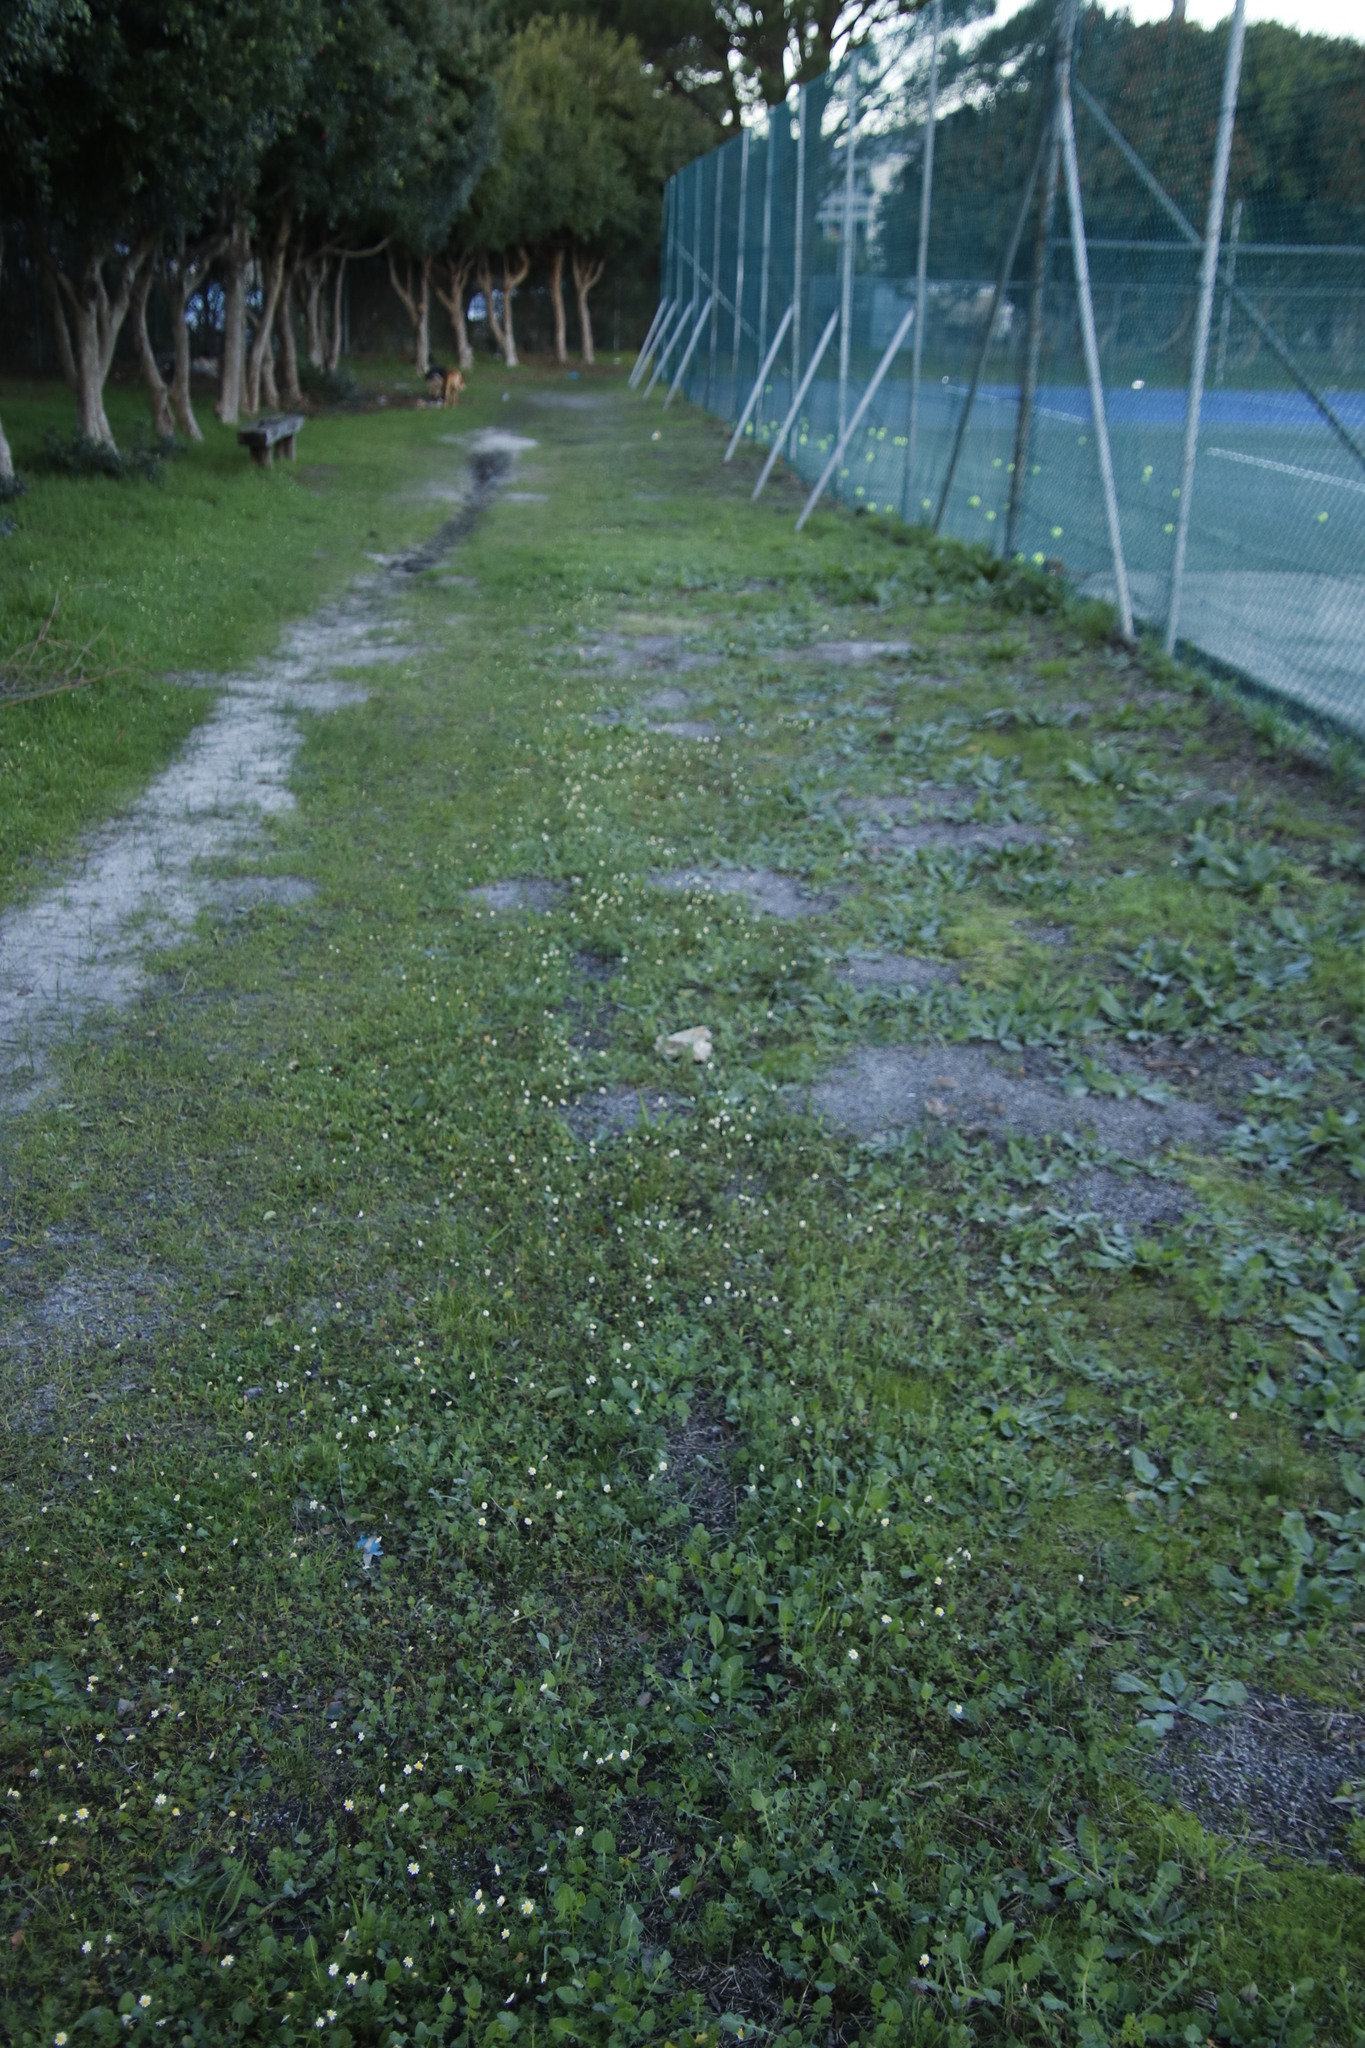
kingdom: Plantae
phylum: Tracheophyta
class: Magnoliopsida
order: Asterales
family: Asteraceae
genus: Cotula
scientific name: Cotula turbinata
